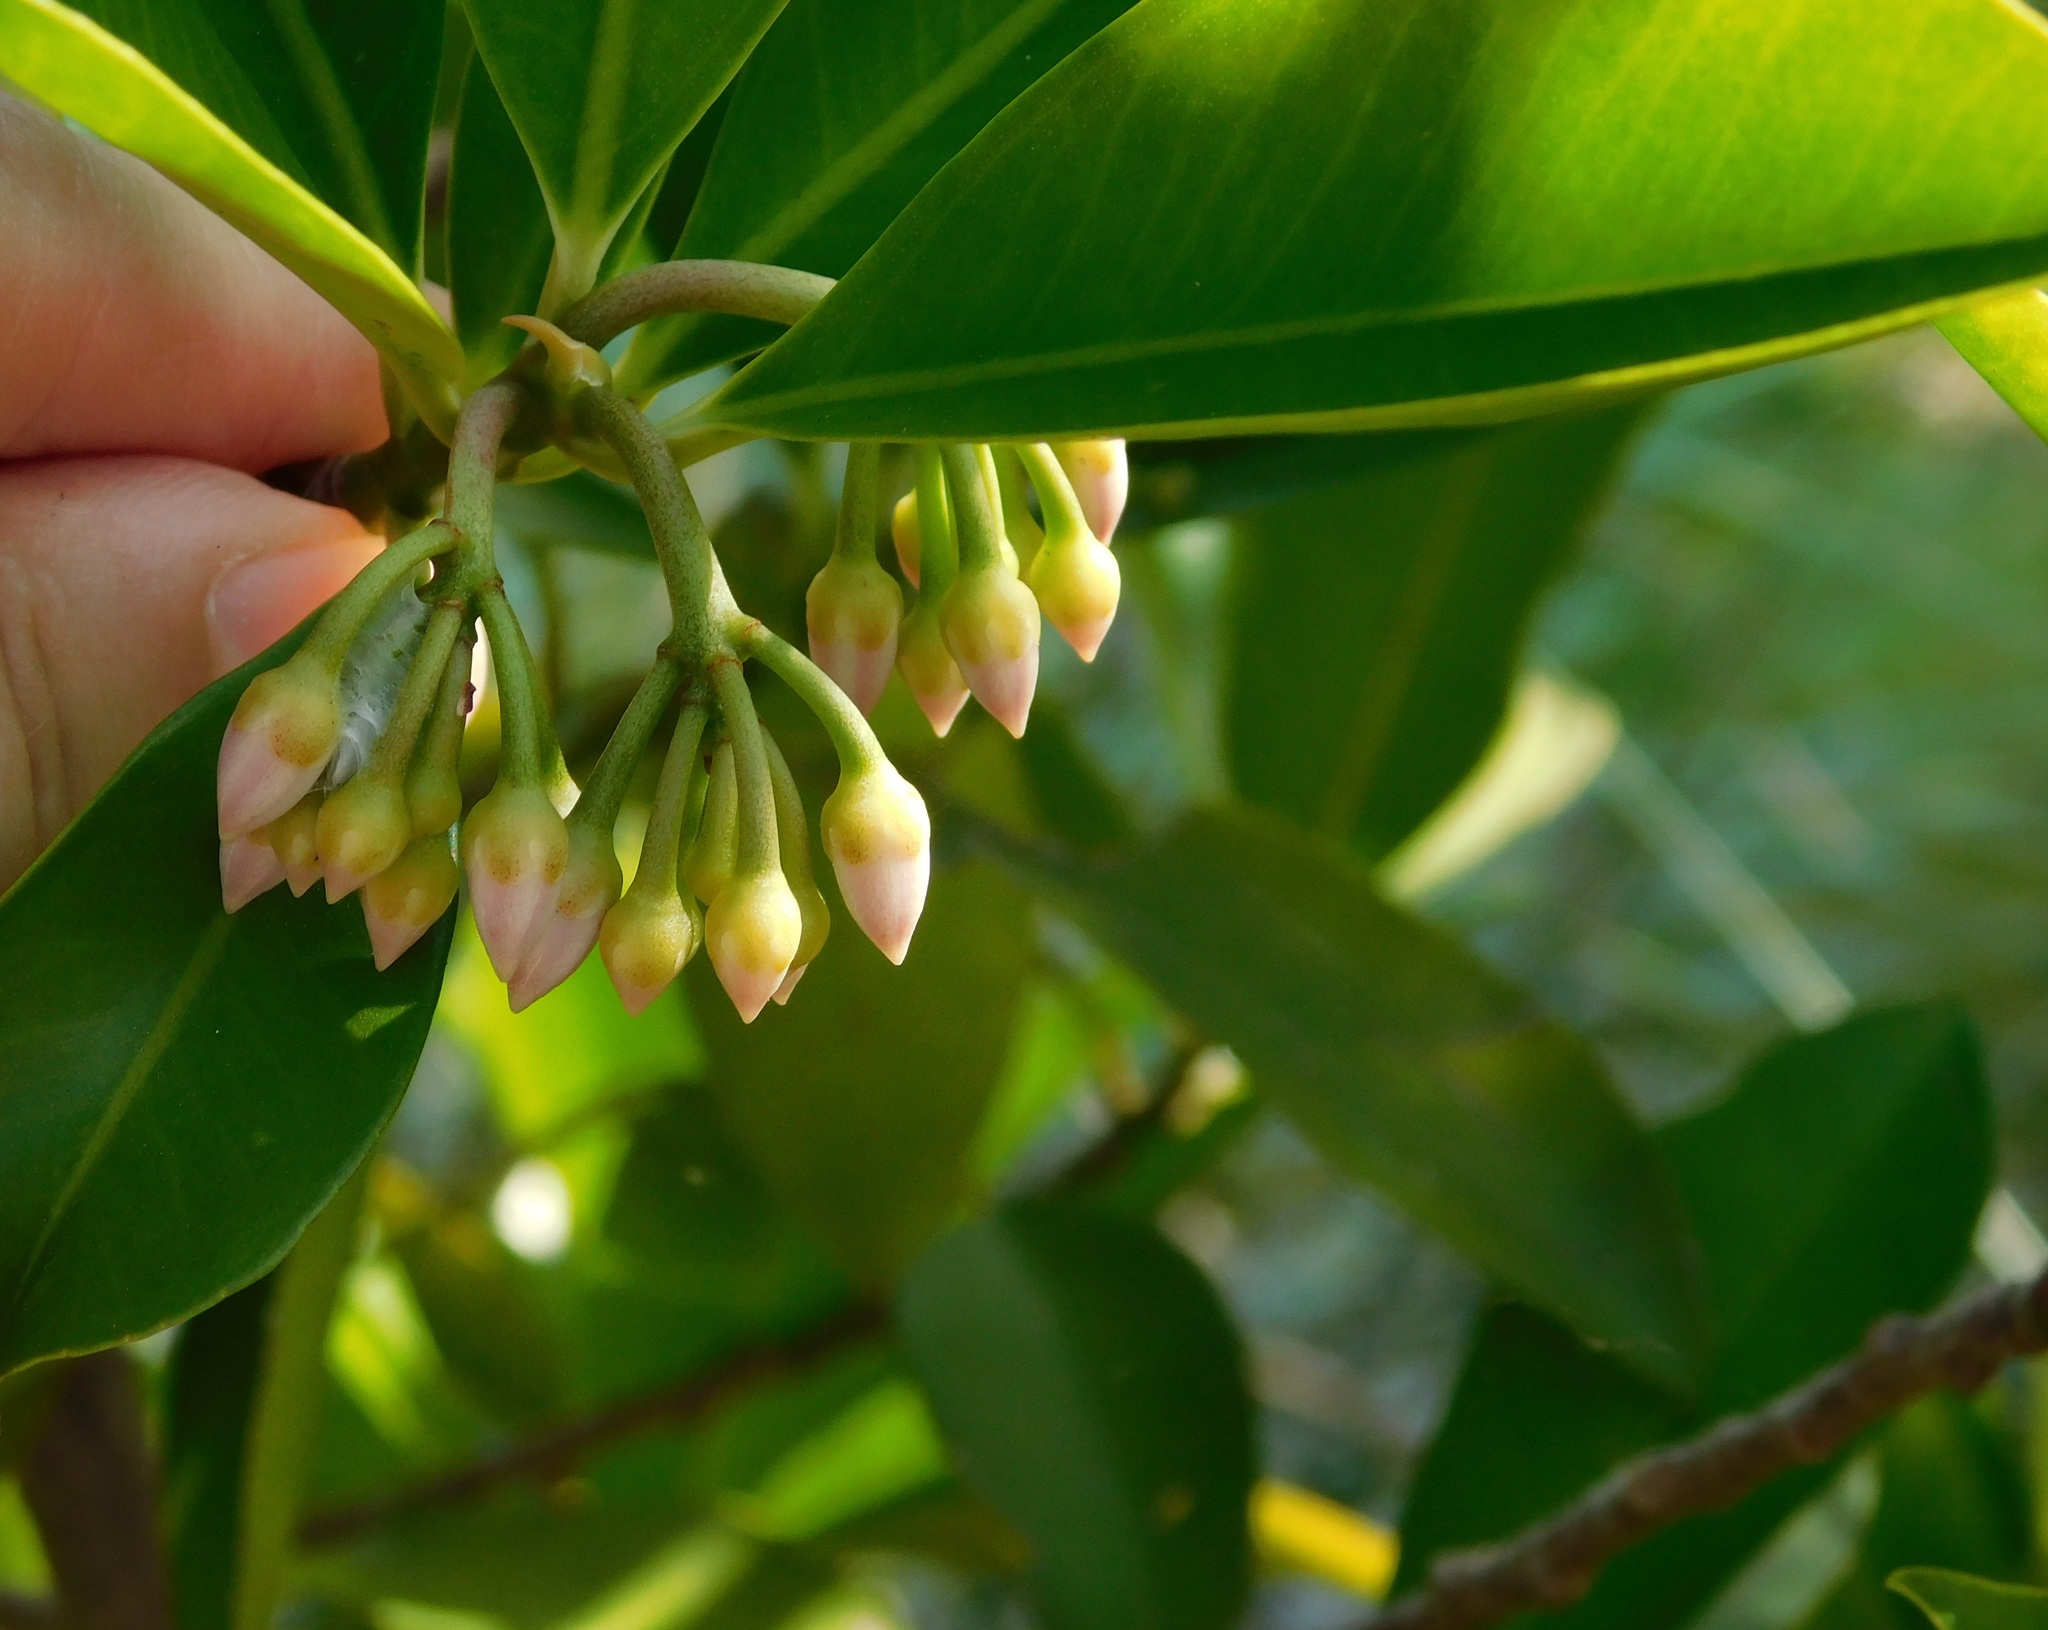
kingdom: Plantae
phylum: Tracheophyta
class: Magnoliopsida
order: Ericales
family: Primulaceae
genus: Ardisia
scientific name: Ardisia elliptica
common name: Shoebutton
